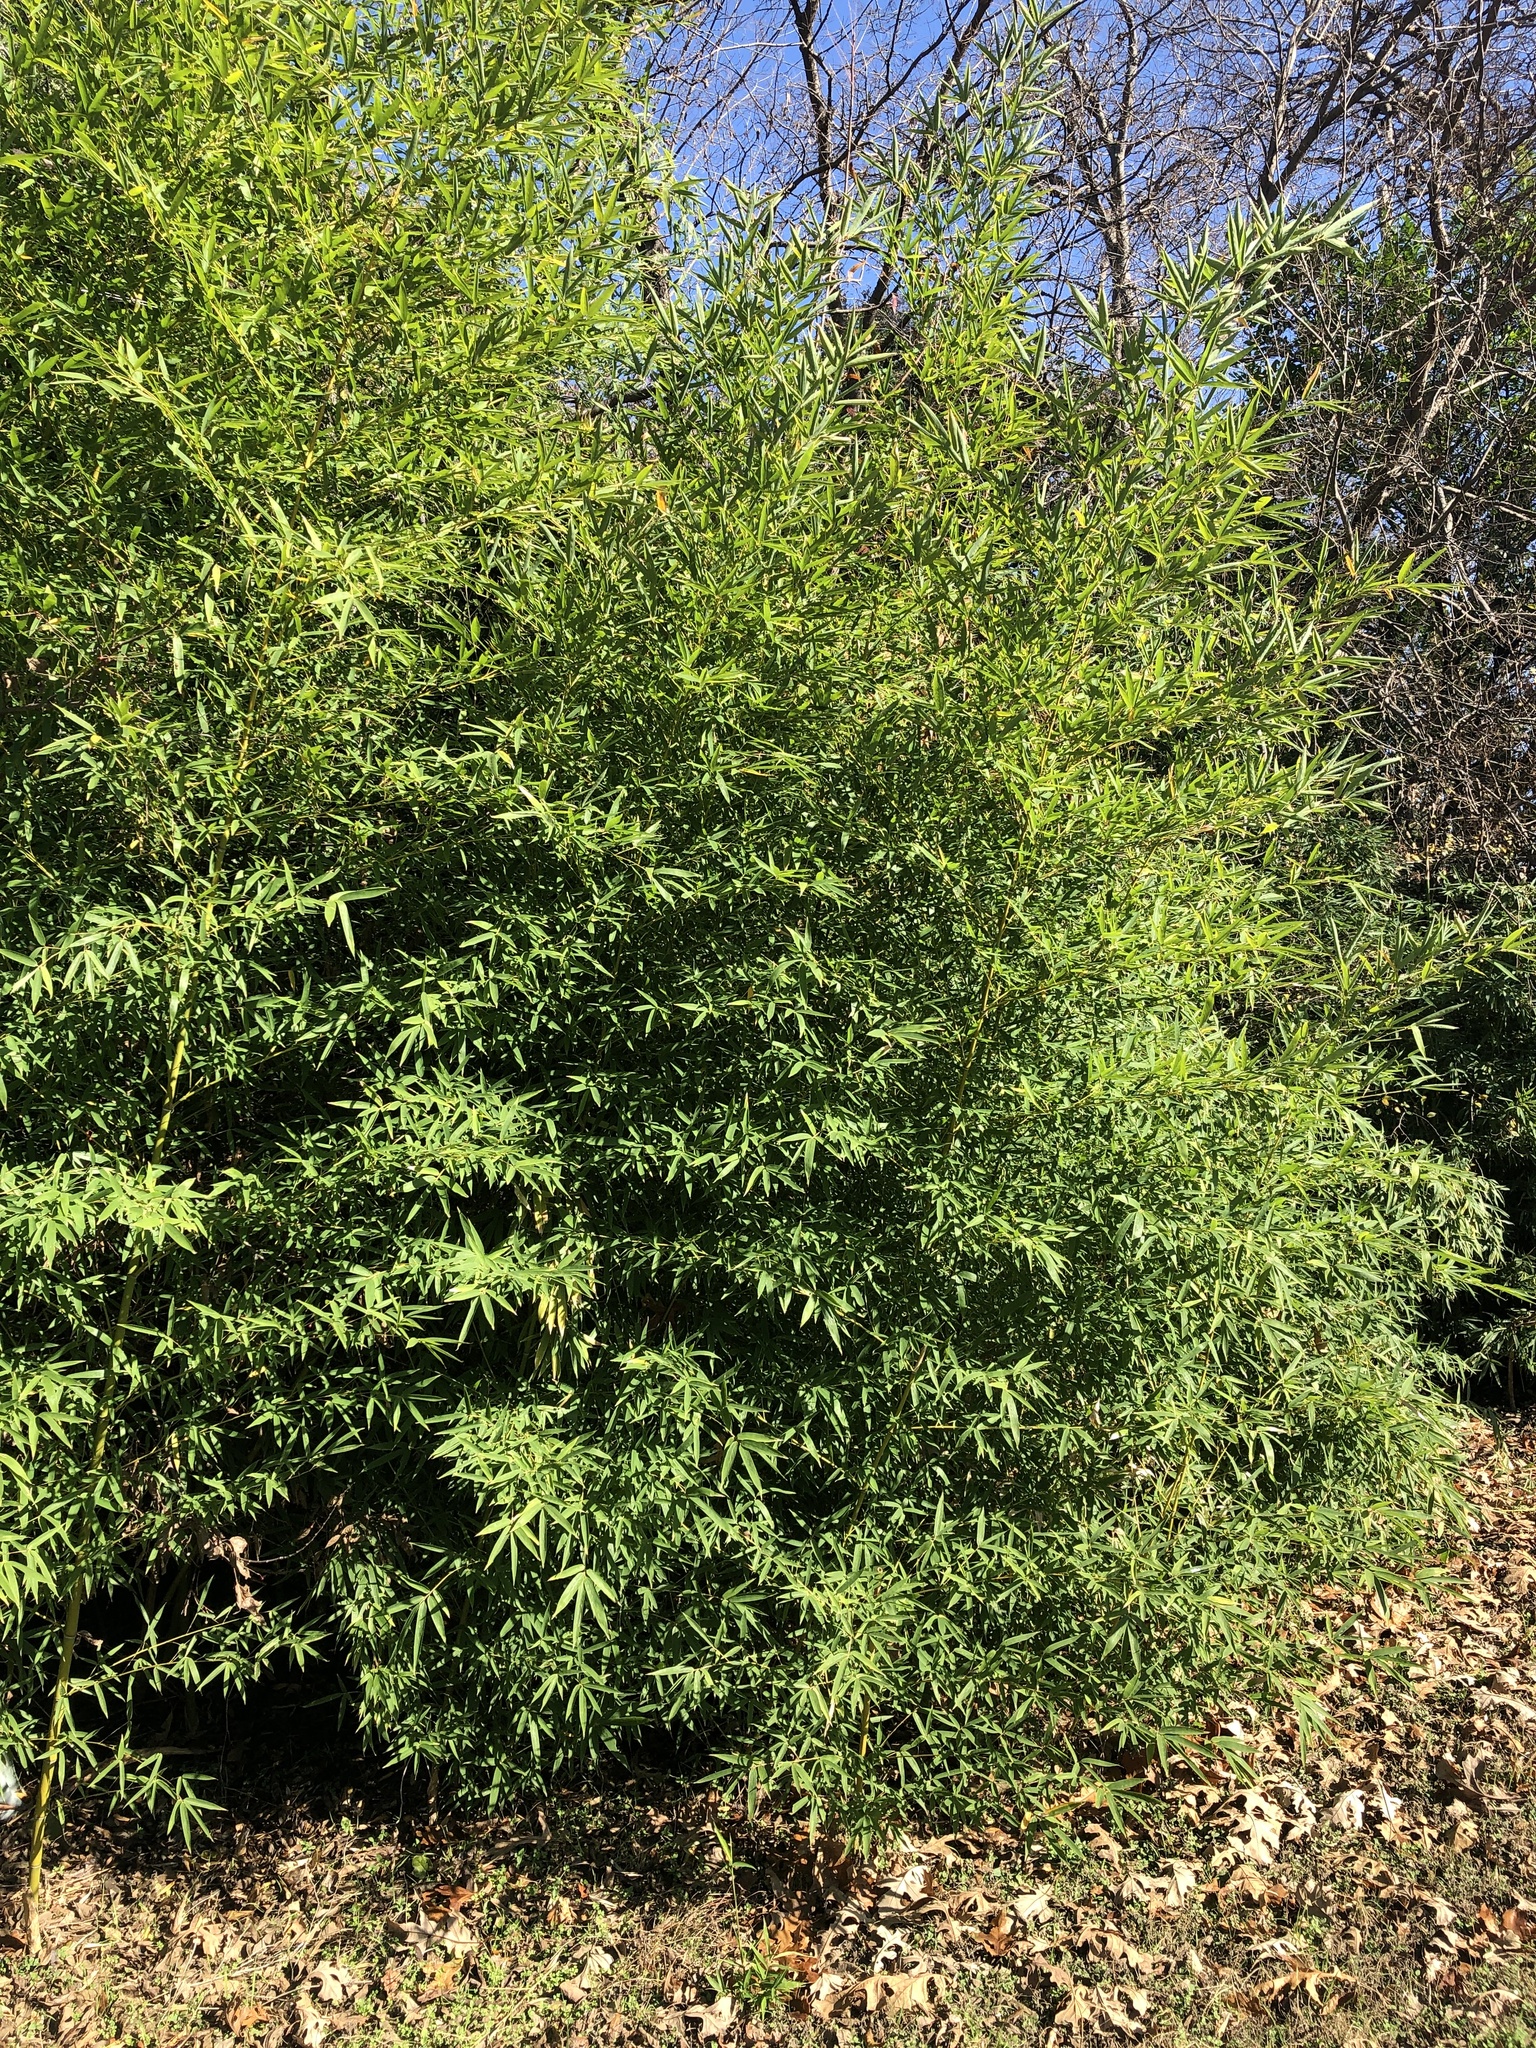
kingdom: Plantae
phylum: Tracheophyta
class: Liliopsida
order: Poales
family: Poaceae
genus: Phyllostachys
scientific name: Phyllostachys aurea
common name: Golden bamboo
